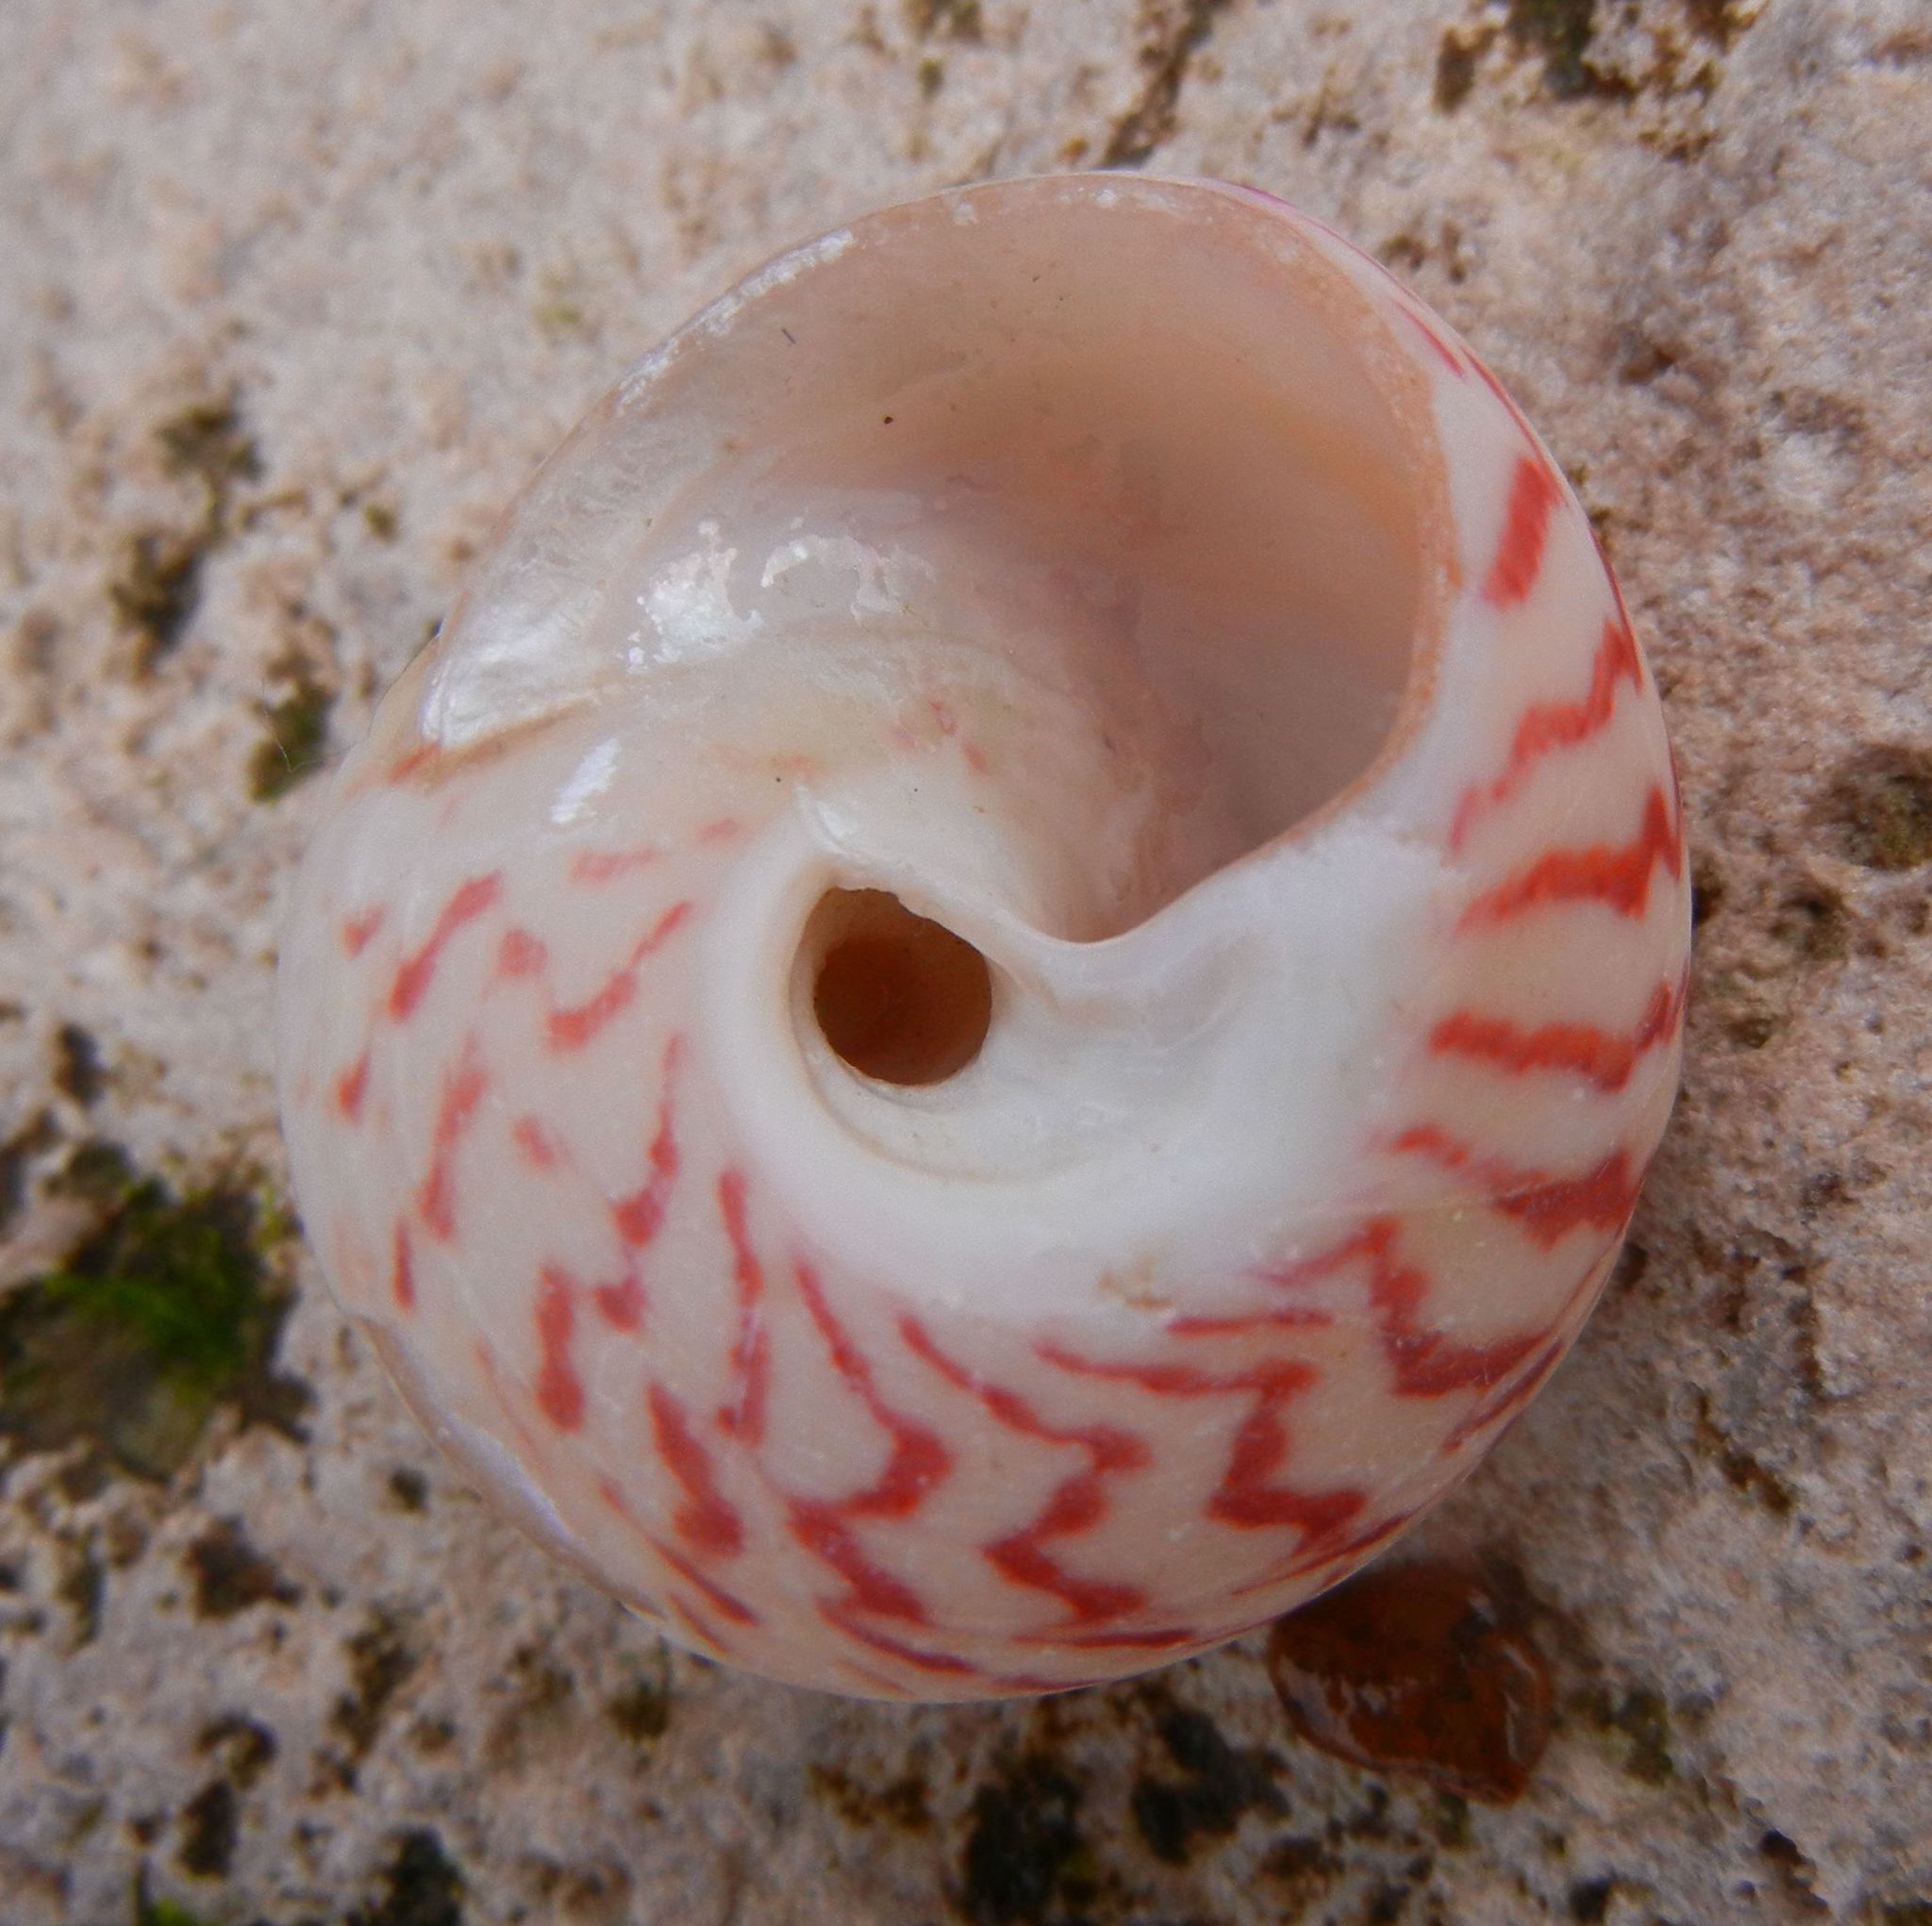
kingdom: Animalia
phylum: Mollusca
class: Gastropoda
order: Trochida
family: Trochidae
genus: Gibbula
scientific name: Gibbula magus
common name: Turban top shell
